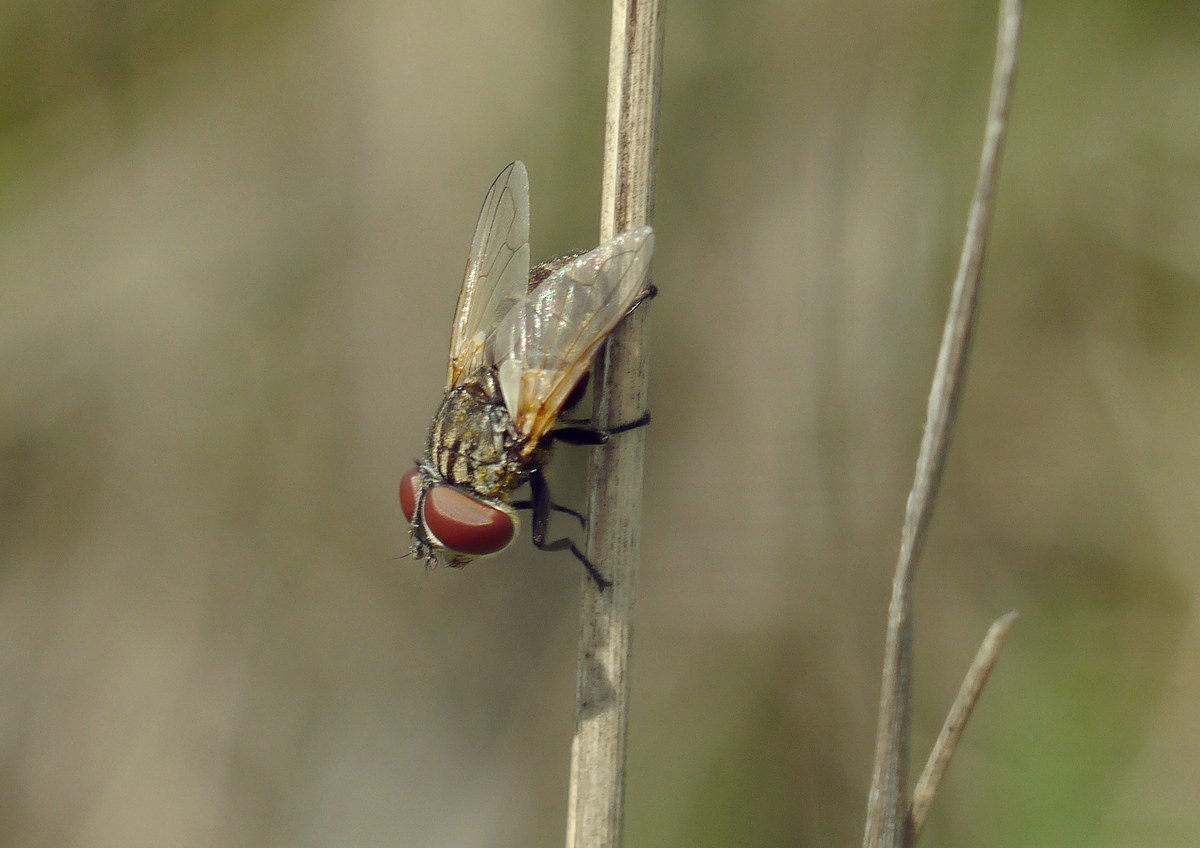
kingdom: Animalia
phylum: Arthropoda
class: Insecta
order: Diptera
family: Tachinidae
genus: Phasia
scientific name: Phasia subcoleoptrata
